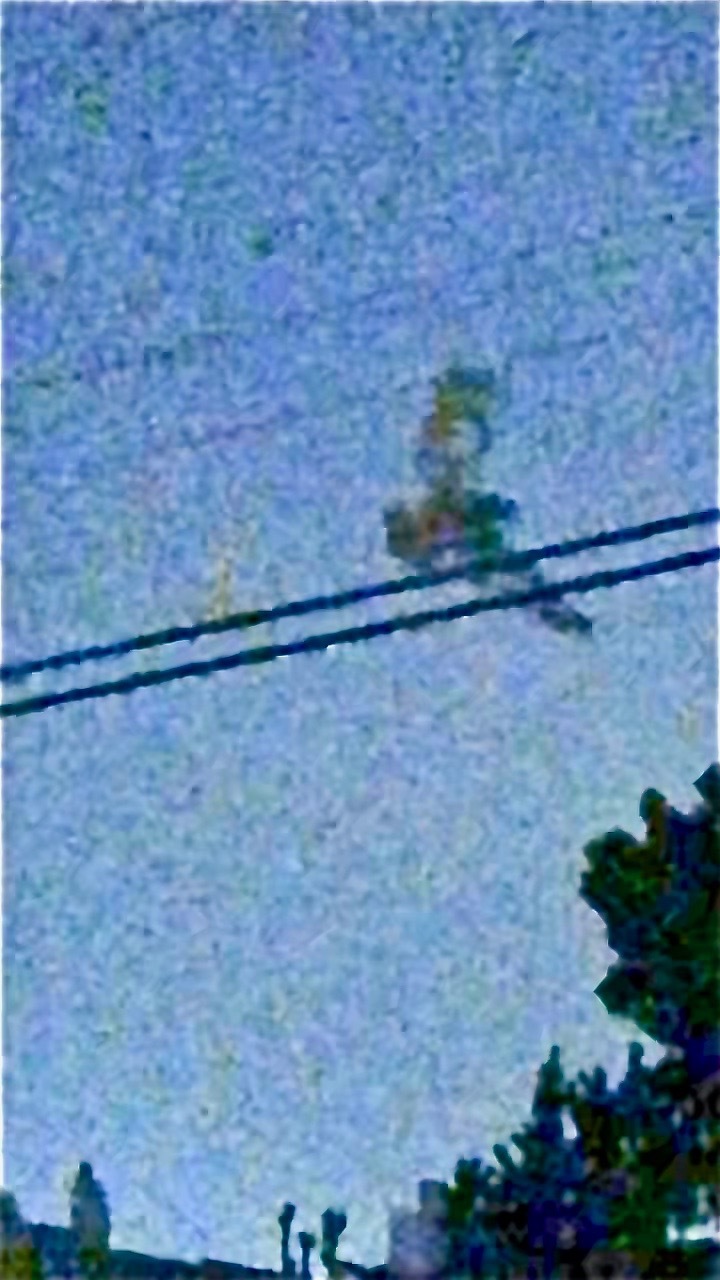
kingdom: Animalia
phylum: Chordata
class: Aves
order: Strigiformes
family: Strigidae
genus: Bubo
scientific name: Bubo virginianus
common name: Great horned owl
